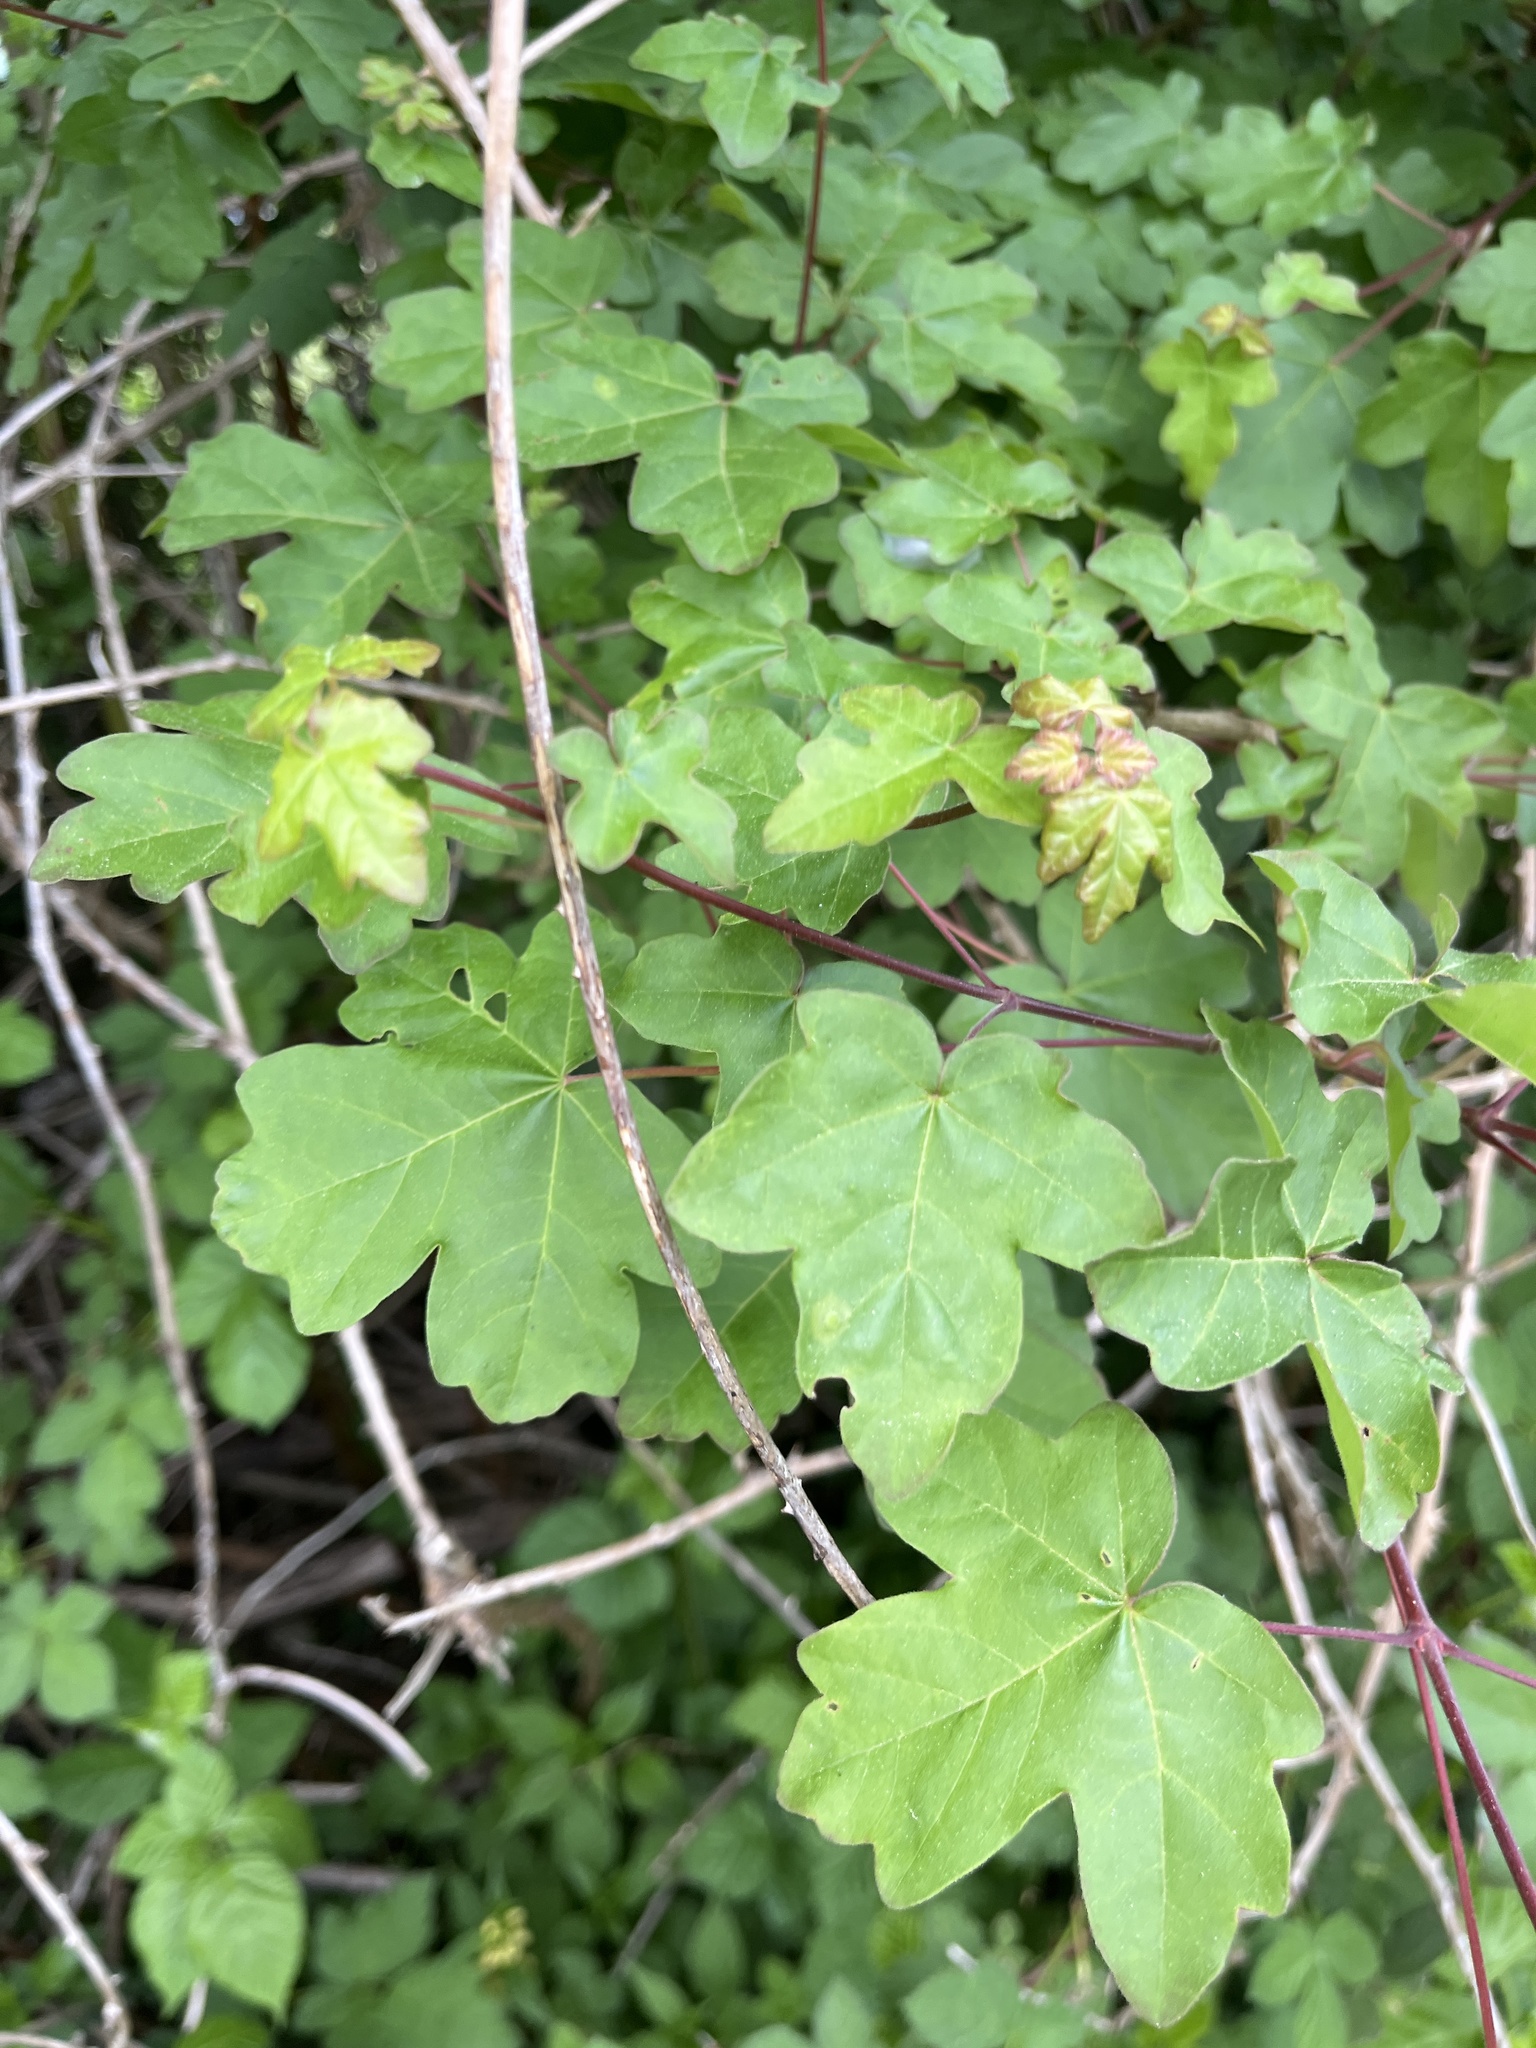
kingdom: Plantae
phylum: Tracheophyta
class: Magnoliopsida
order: Sapindales
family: Sapindaceae
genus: Acer
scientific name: Acer campestre
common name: Field maple
